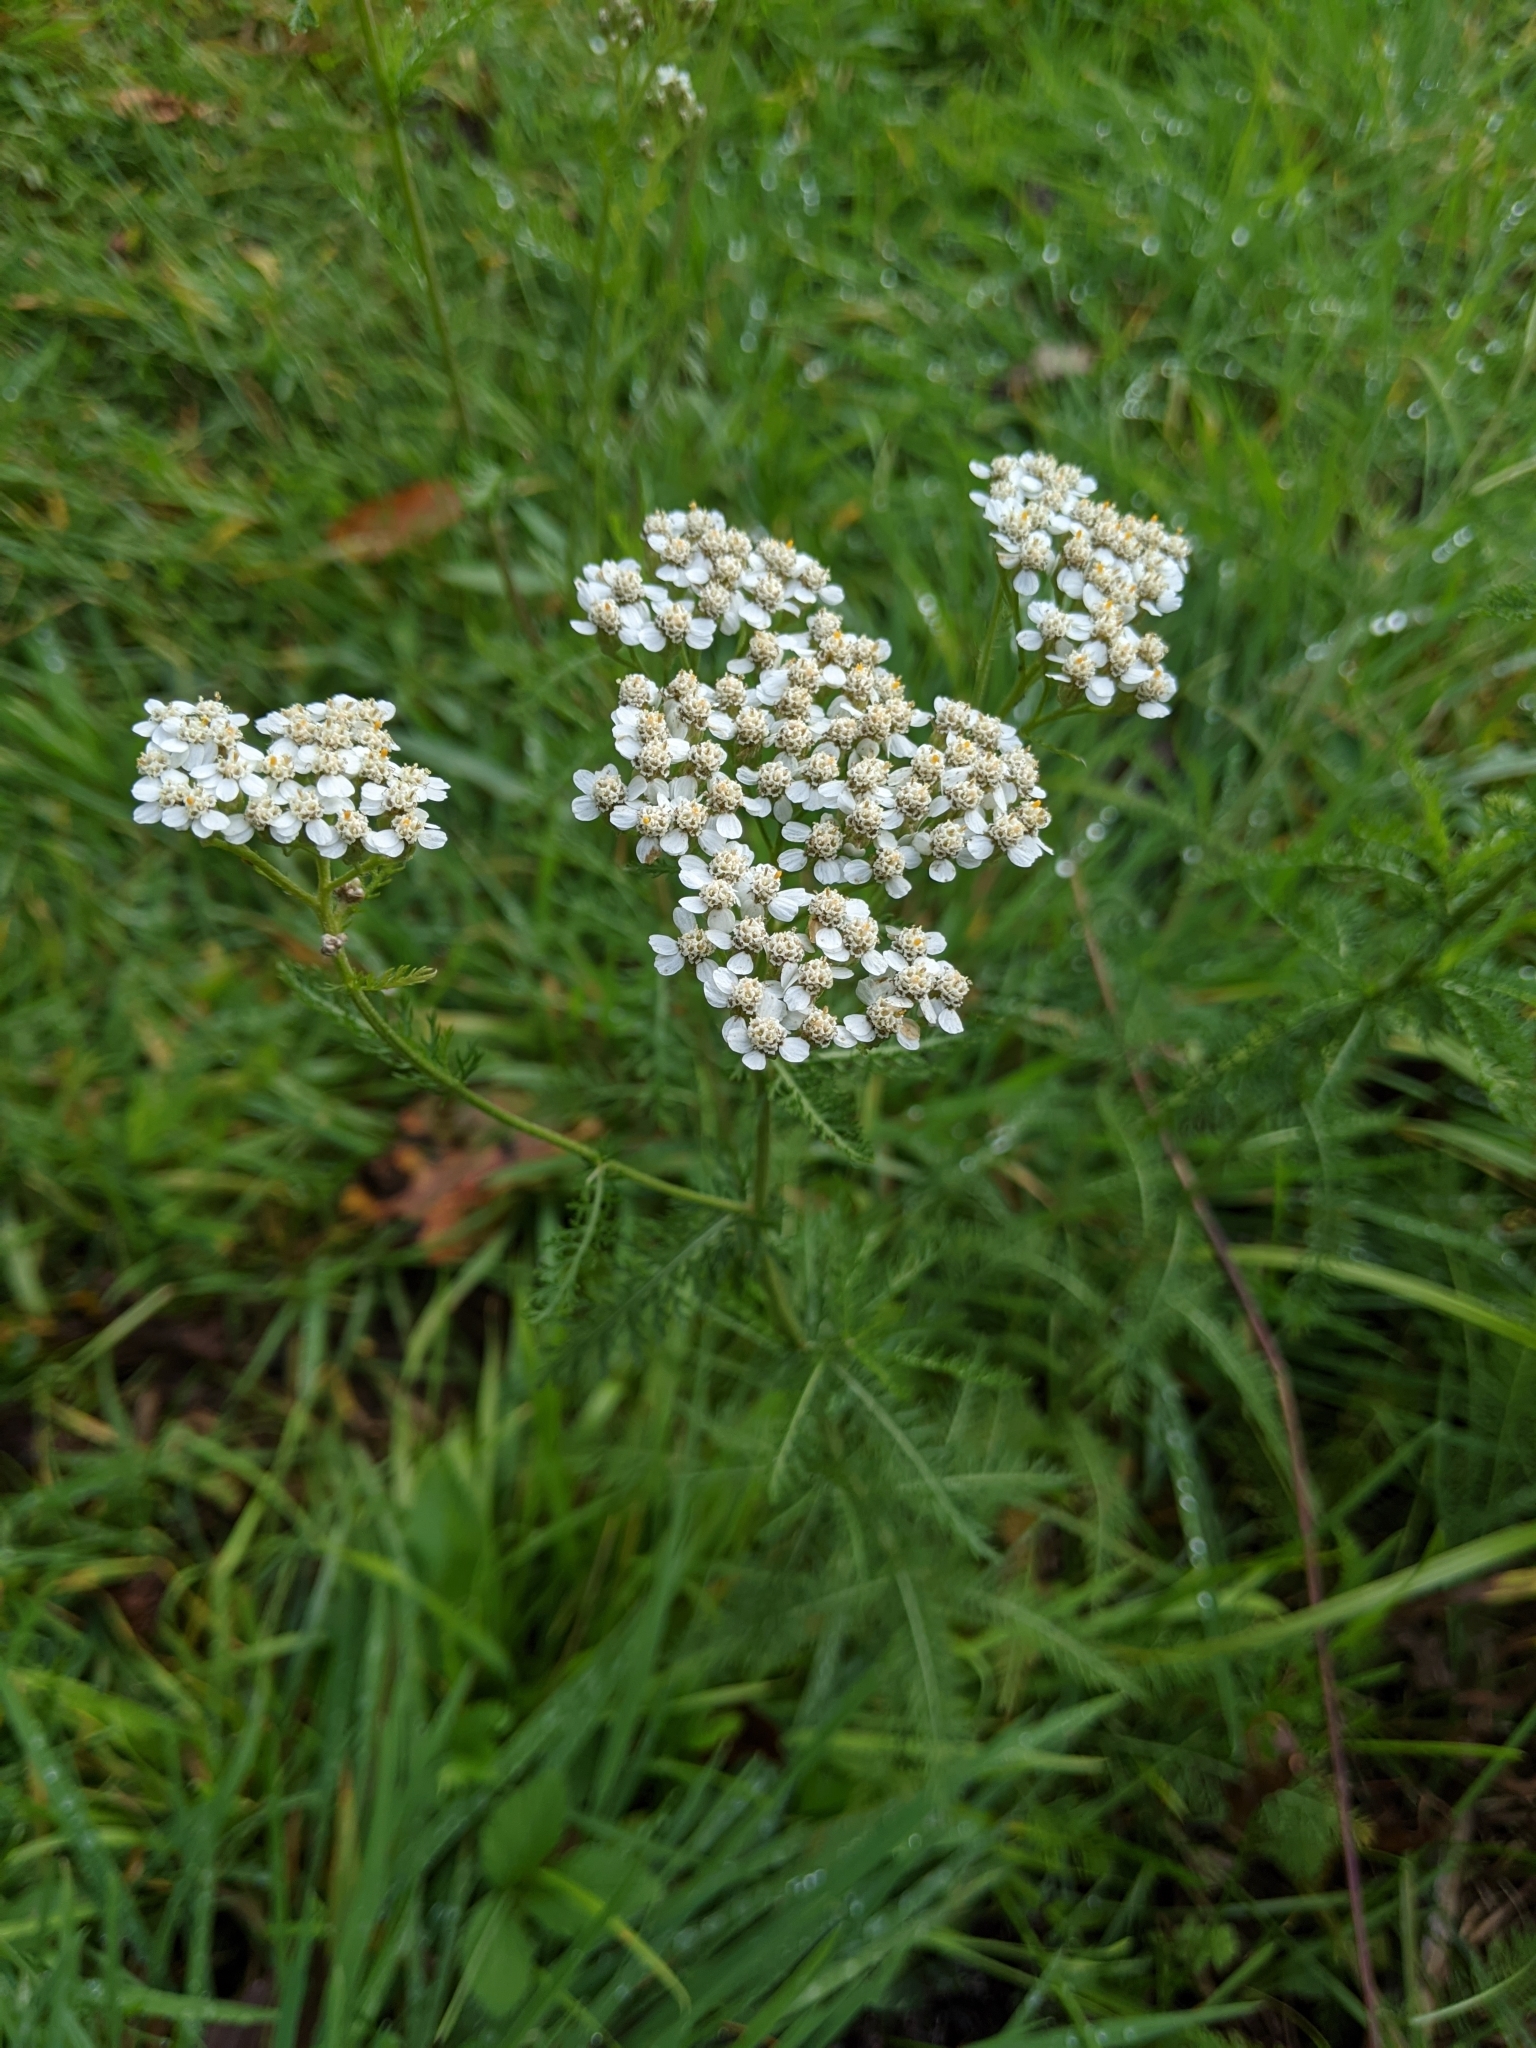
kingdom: Plantae
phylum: Tracheophyta
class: Magnoliopsida
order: Asterales
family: Asteraceae
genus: Achillea
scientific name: Achillea millefolium
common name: Yarrow
